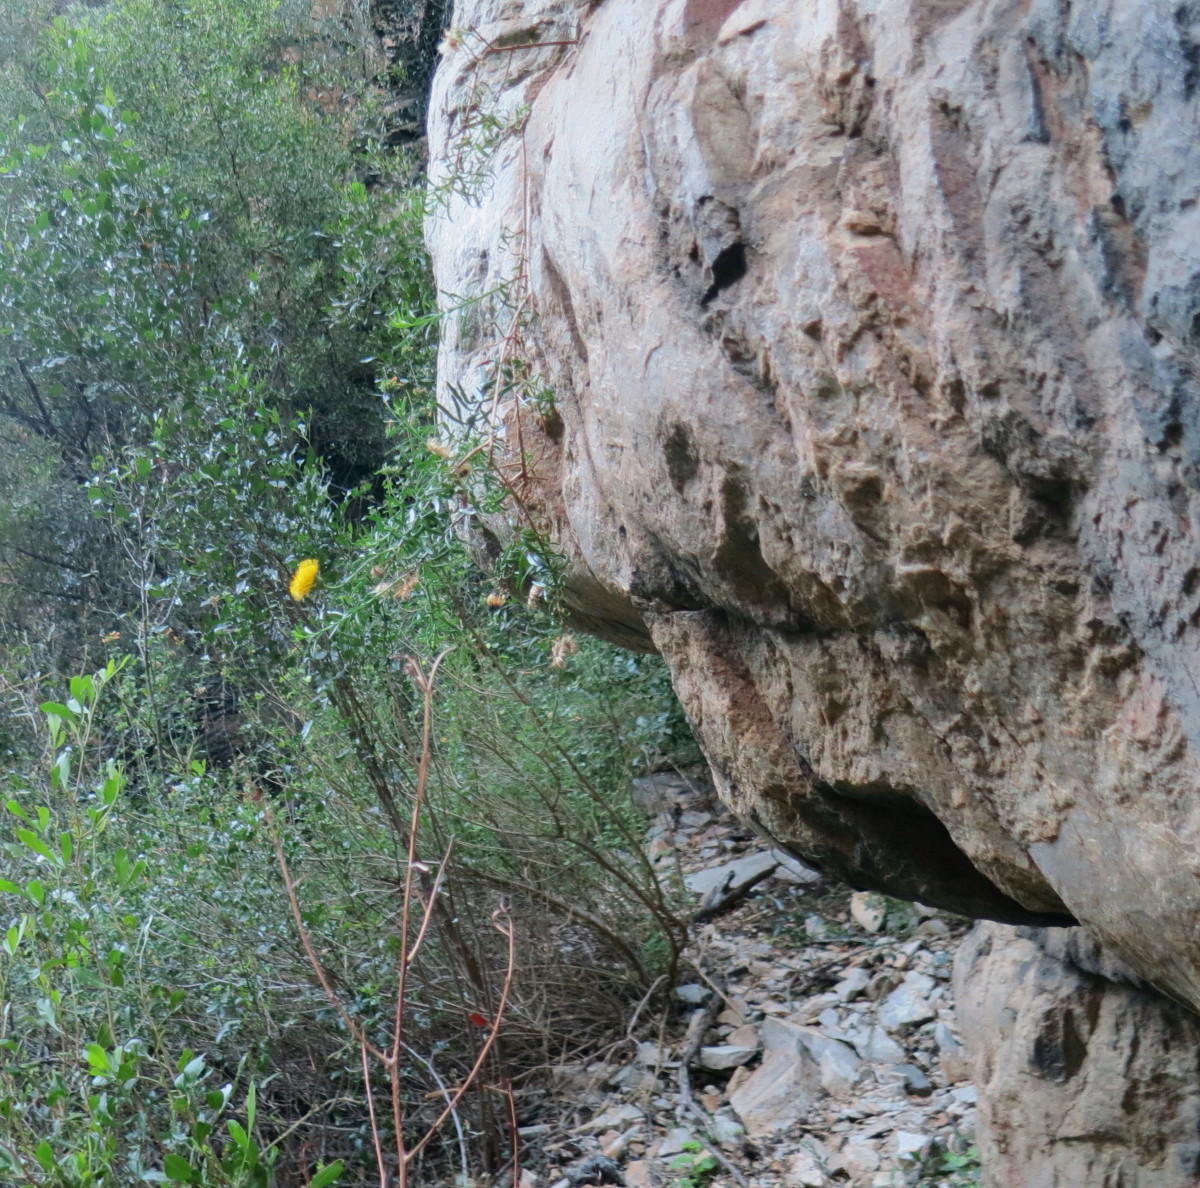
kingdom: Plantae
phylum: Tracheophyta
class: Magnoliopsida
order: Asterales
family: Asteraceae
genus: Pentatrichia
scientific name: Pentatrichia integra
